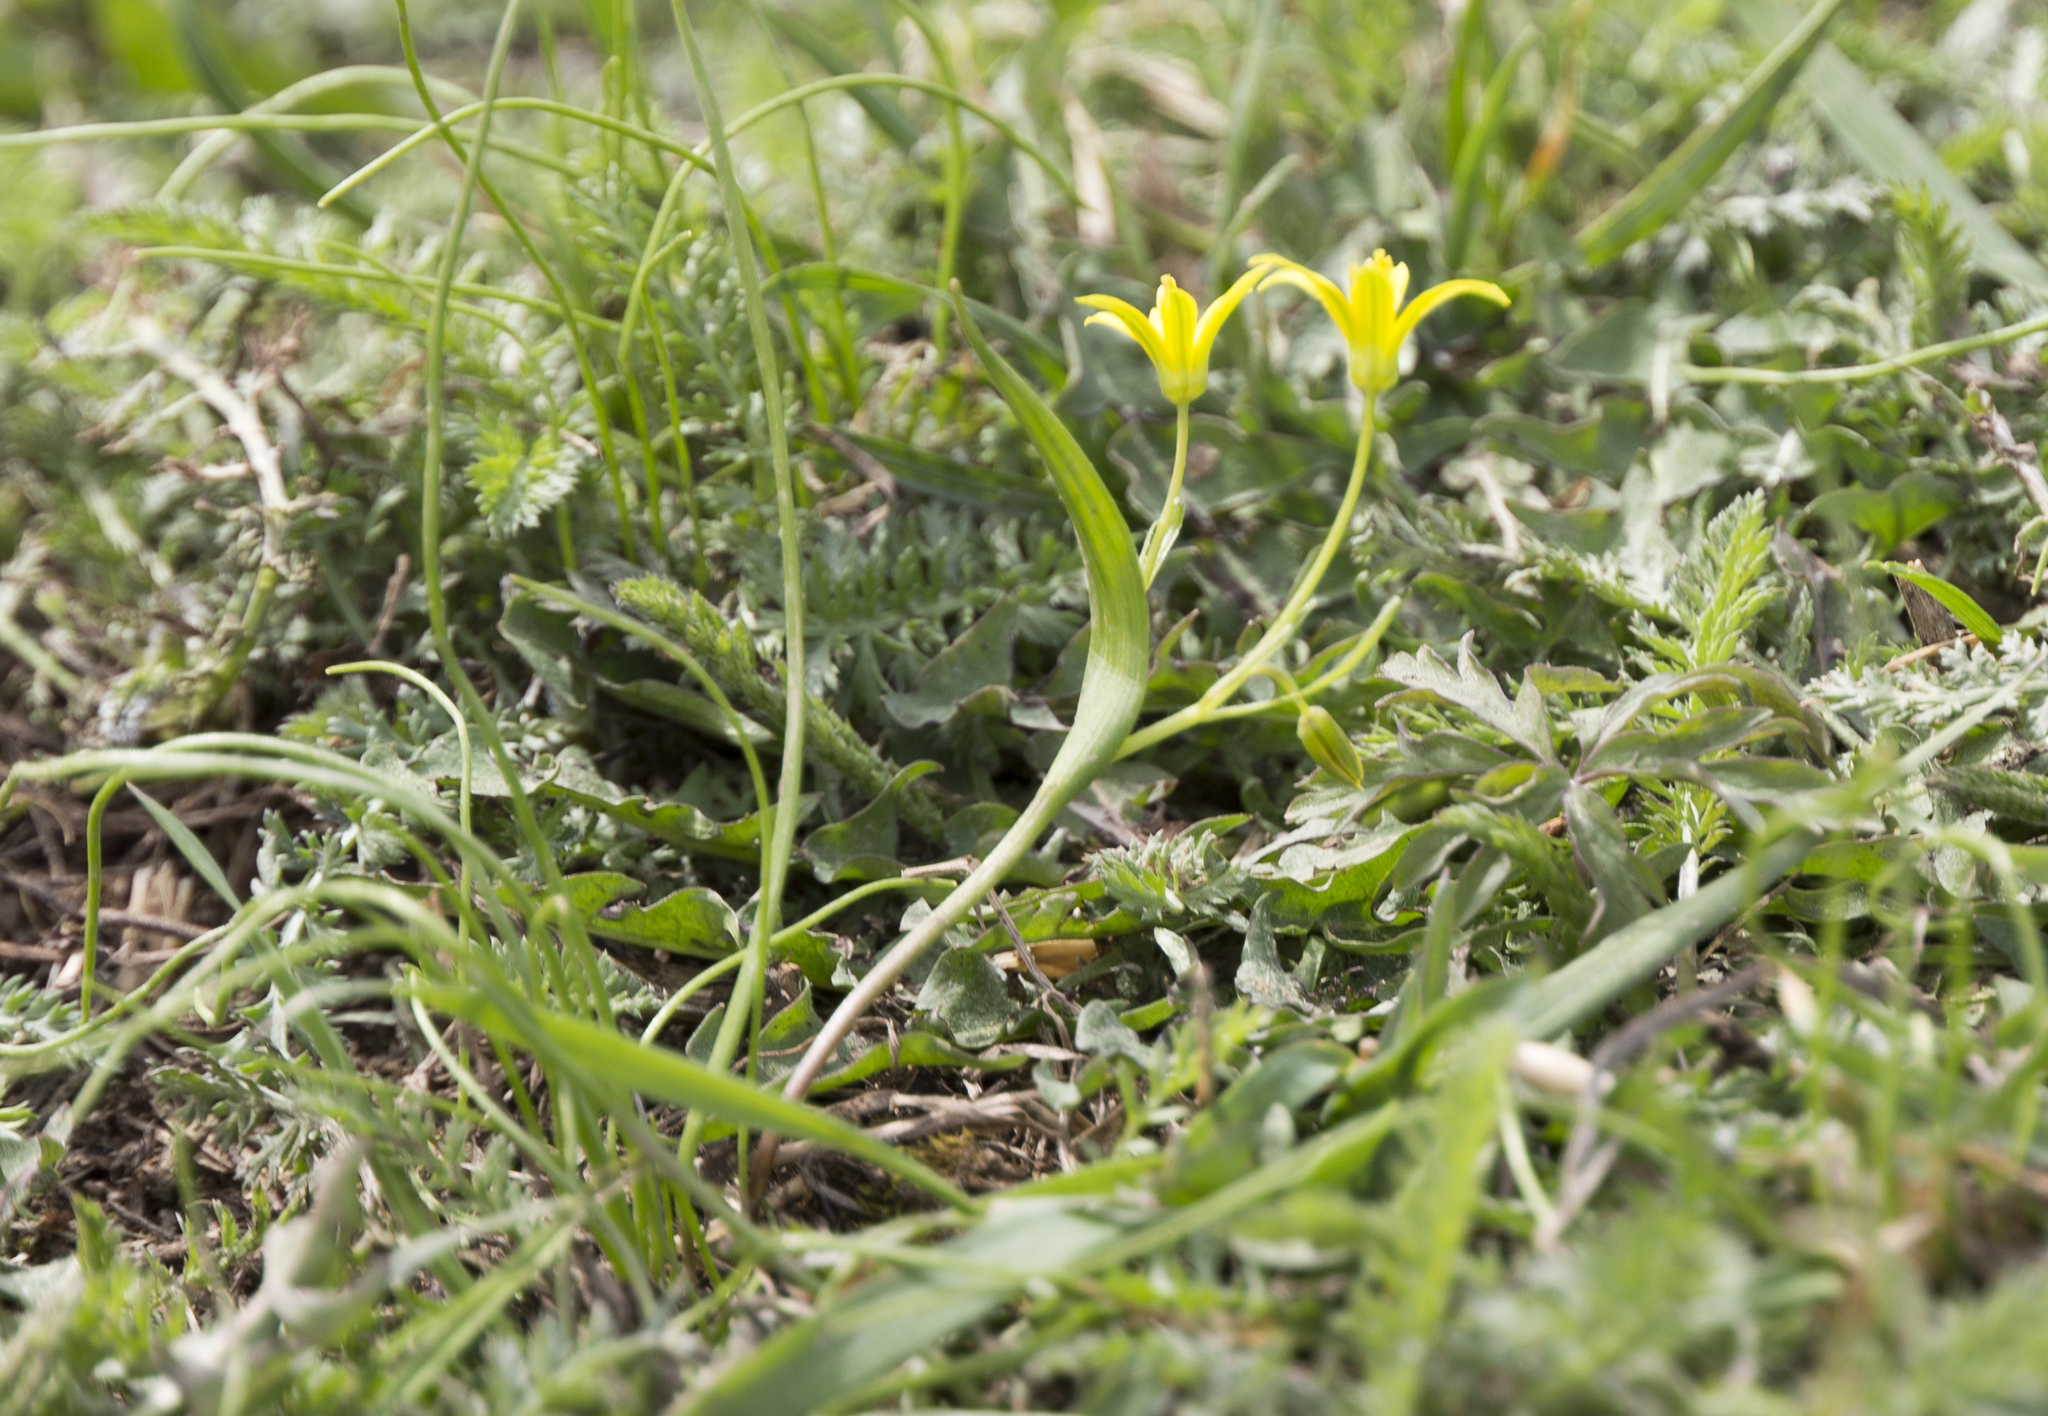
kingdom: Plantae
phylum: Tracheophyta
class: Liliopsida
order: Liliales
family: Liliaceae
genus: Gagea
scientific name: Gagea minima
